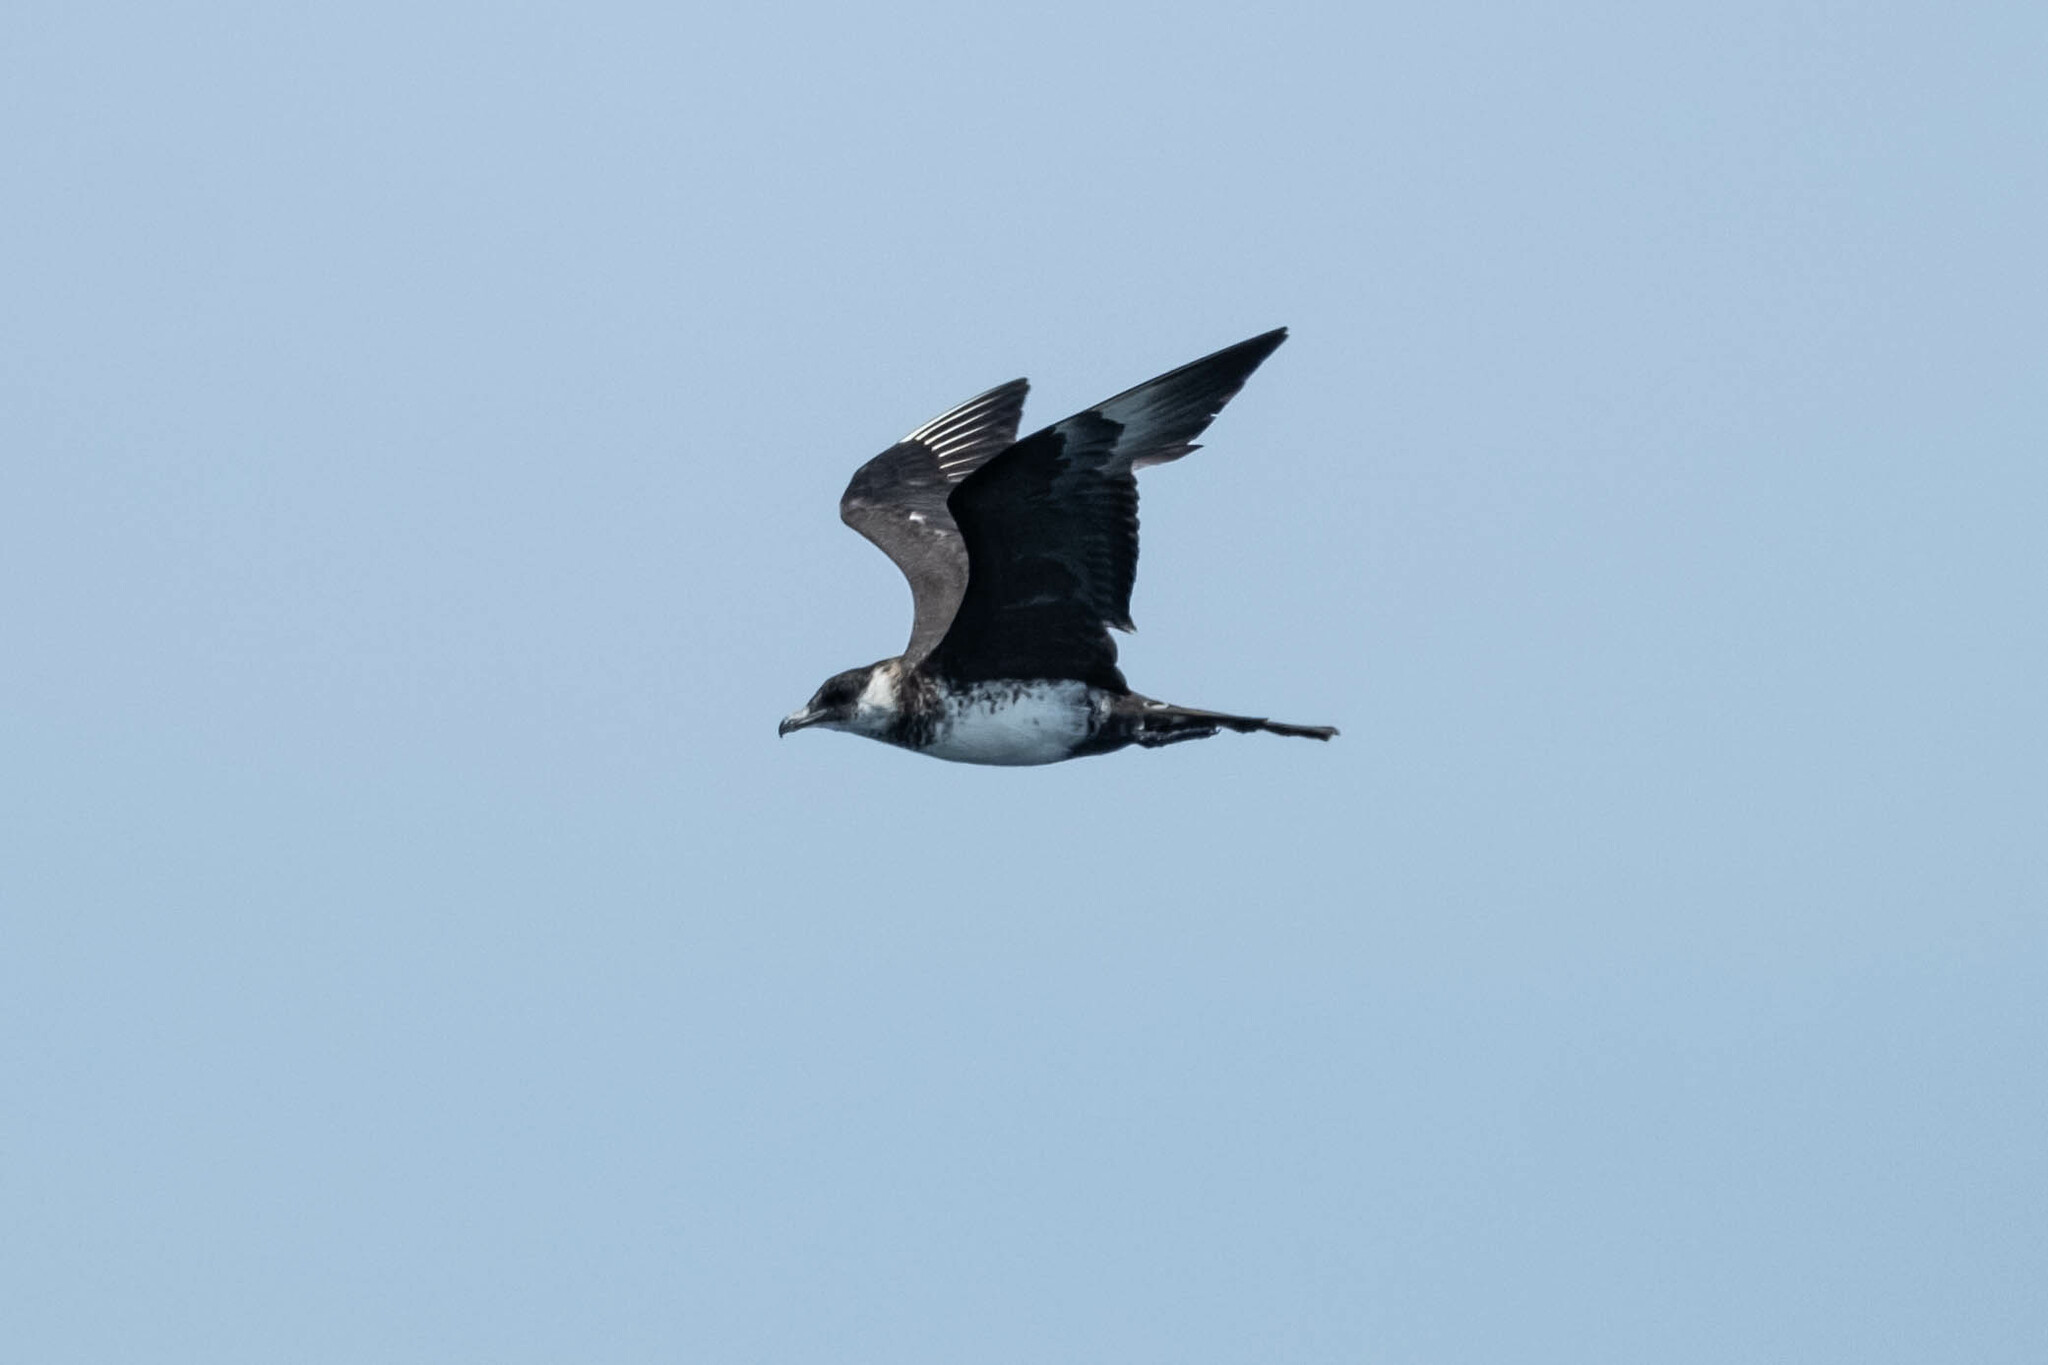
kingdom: Animalia
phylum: Chordata
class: Aves
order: Charadriiformes
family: Stercorariidae
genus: Stercorarius
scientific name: Stercorarius pomarinus
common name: Pomarine jaeger
